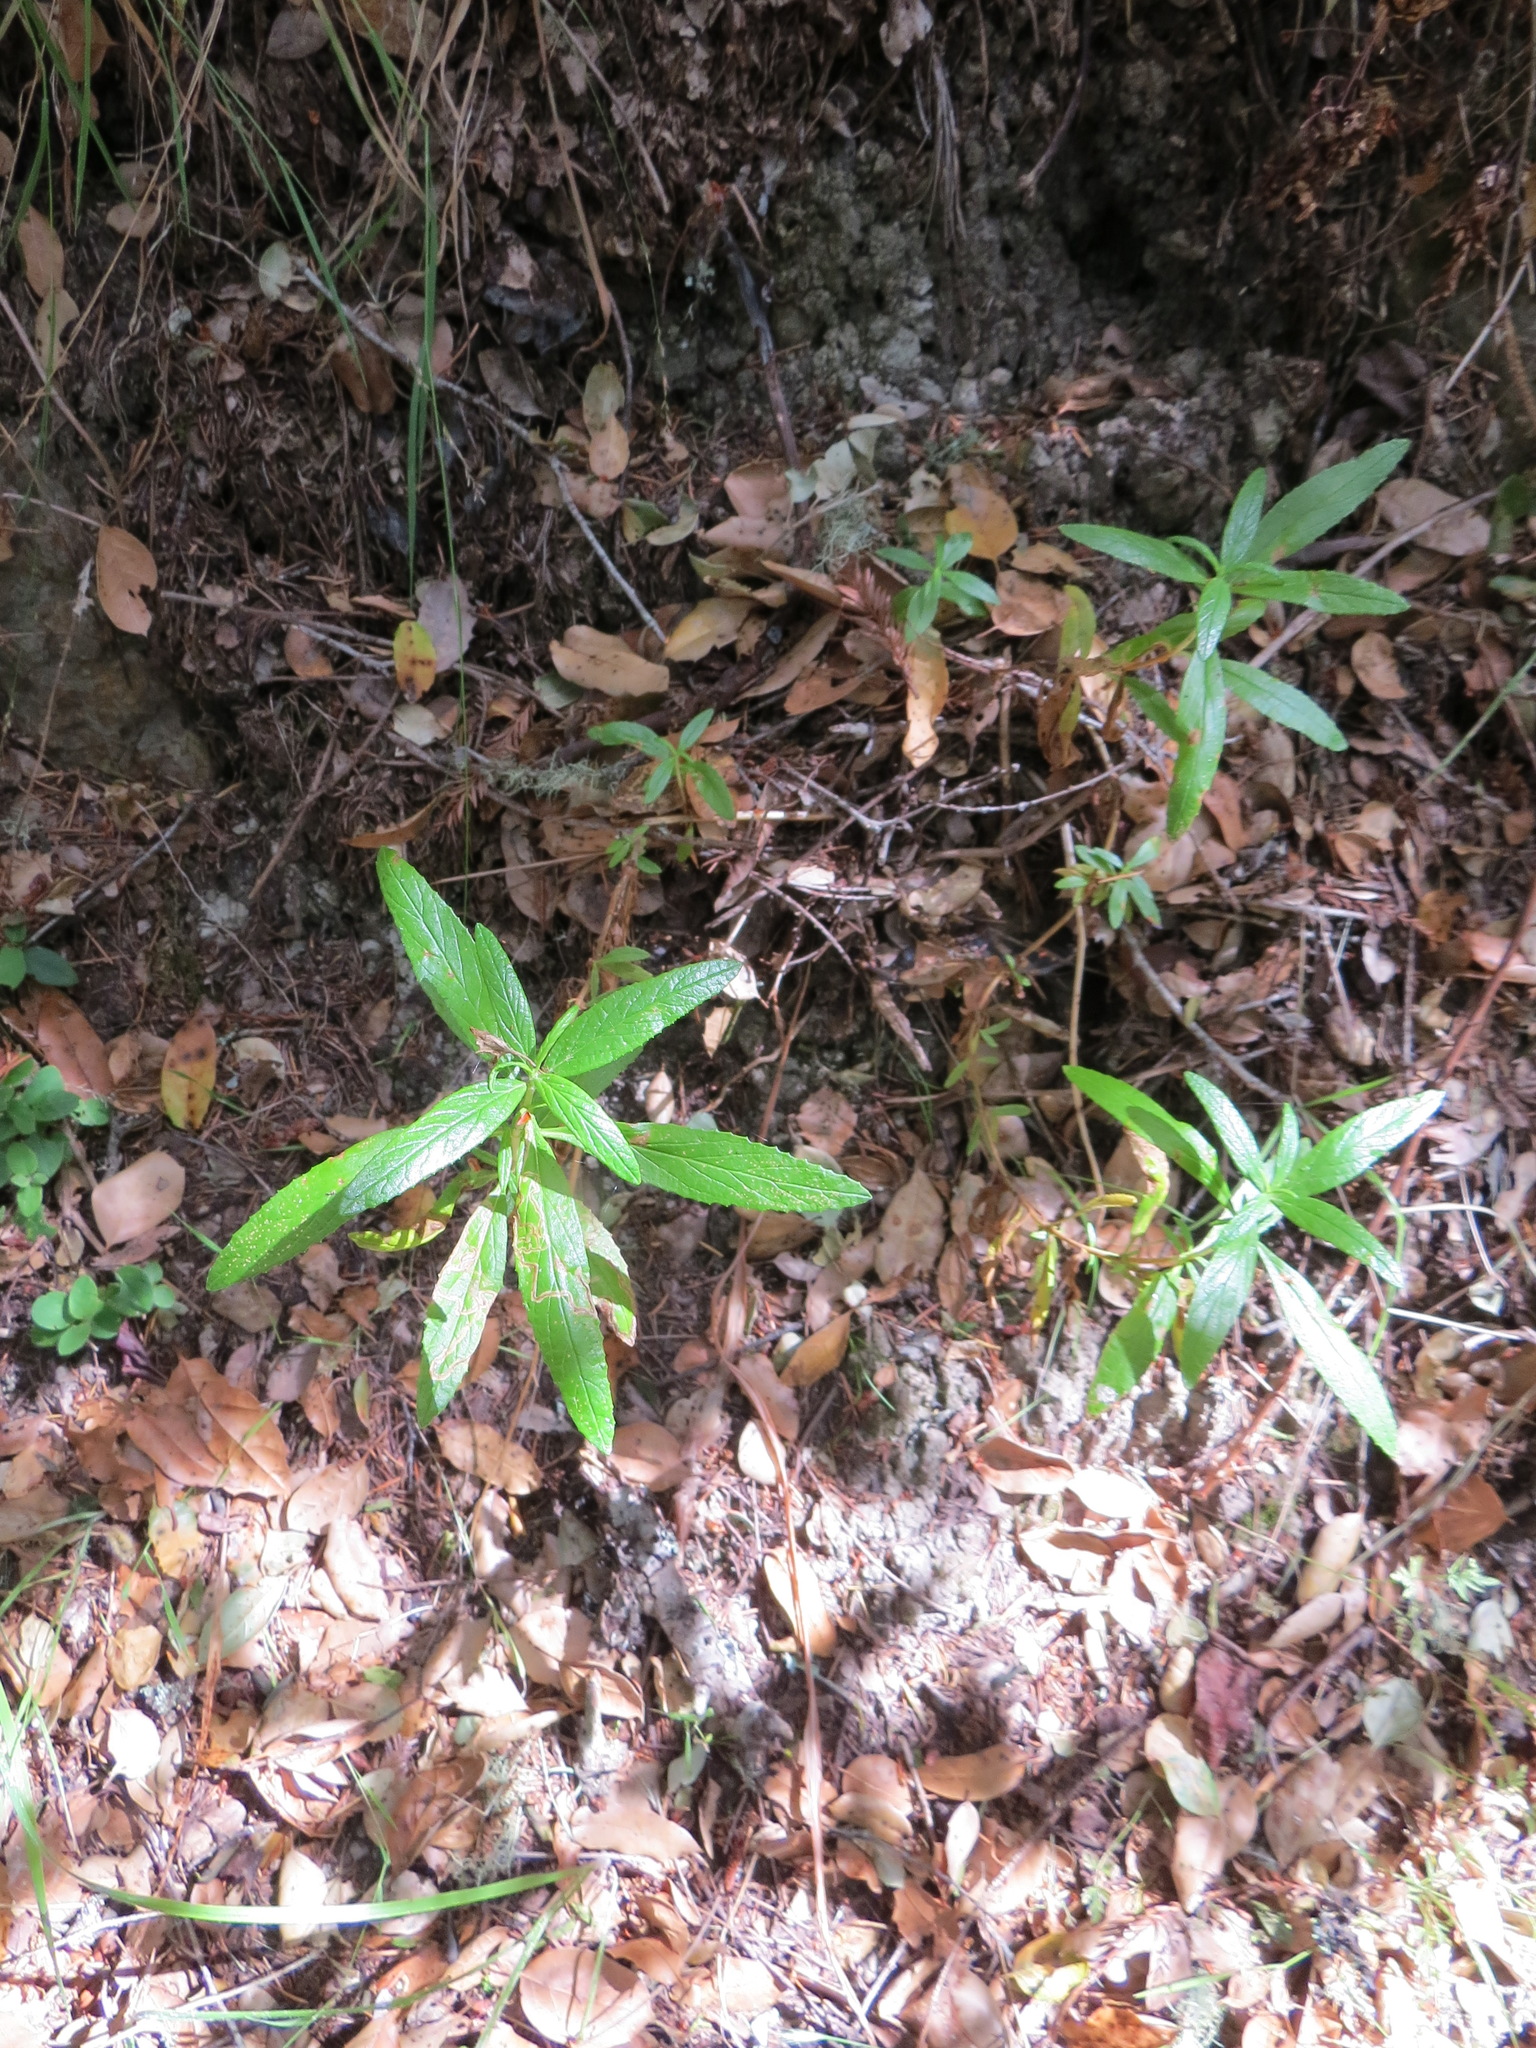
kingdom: Animalia
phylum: Arthropoda
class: Insecta
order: Diptera
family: Agromyzidae
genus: Phytomyza
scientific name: Phytomyza mimuli
